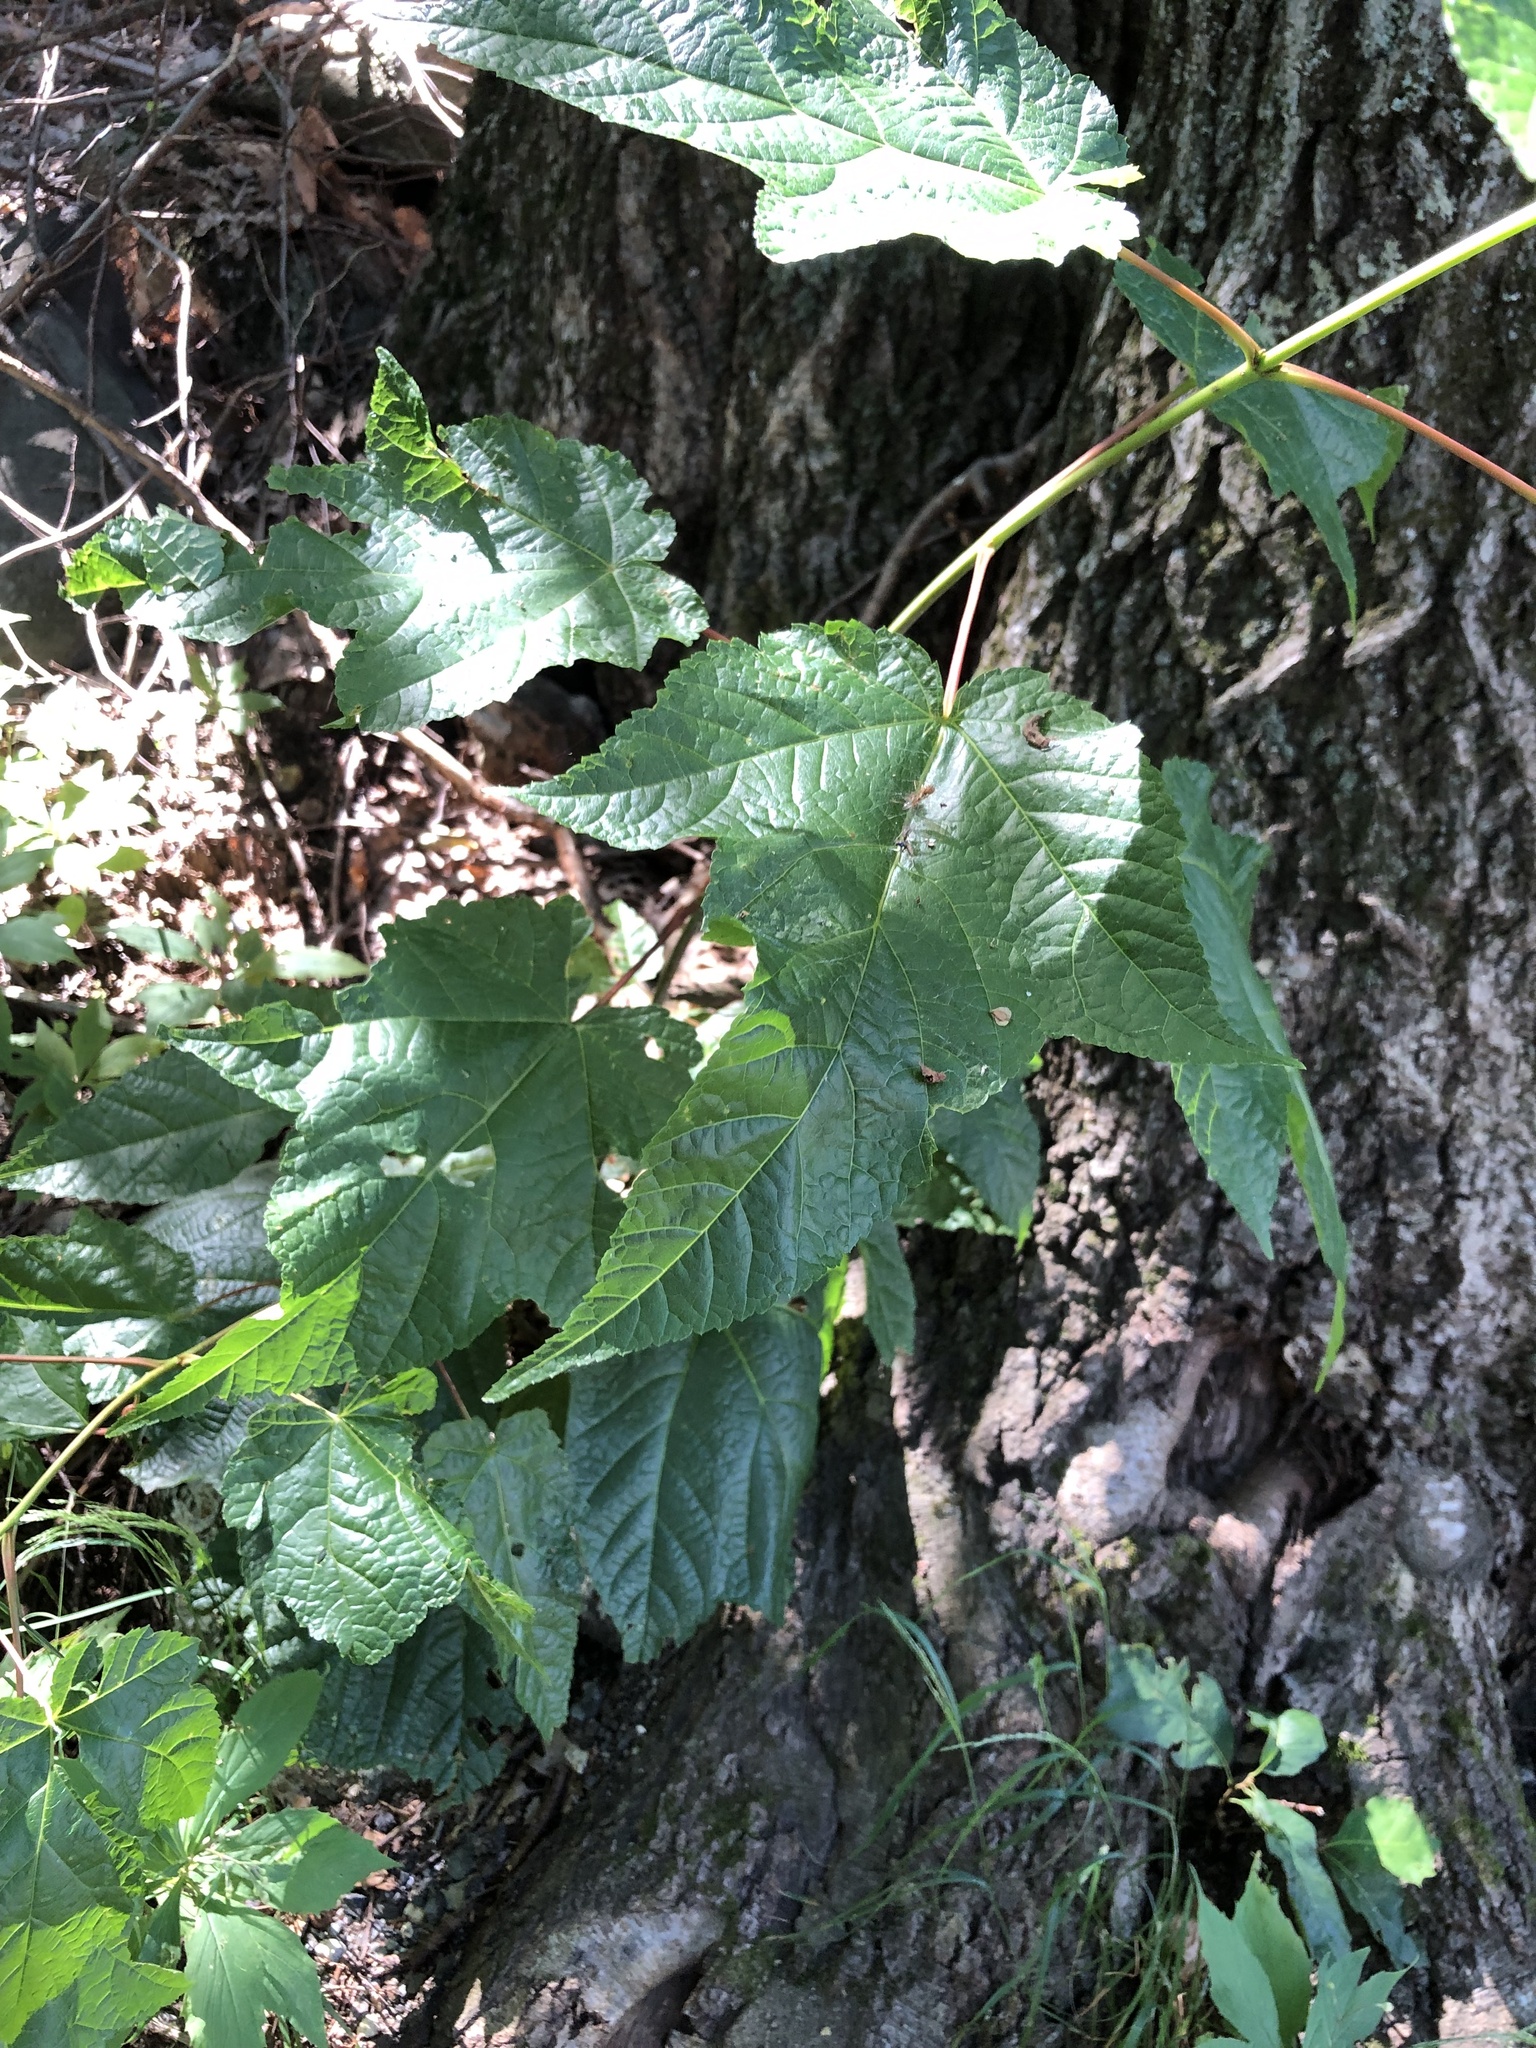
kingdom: Plantae
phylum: Tracheophyta
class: Magnoliopsida
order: Sapindales
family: Sapindaceae
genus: Acer
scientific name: Acer pensylvanicum
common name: Moosewood
